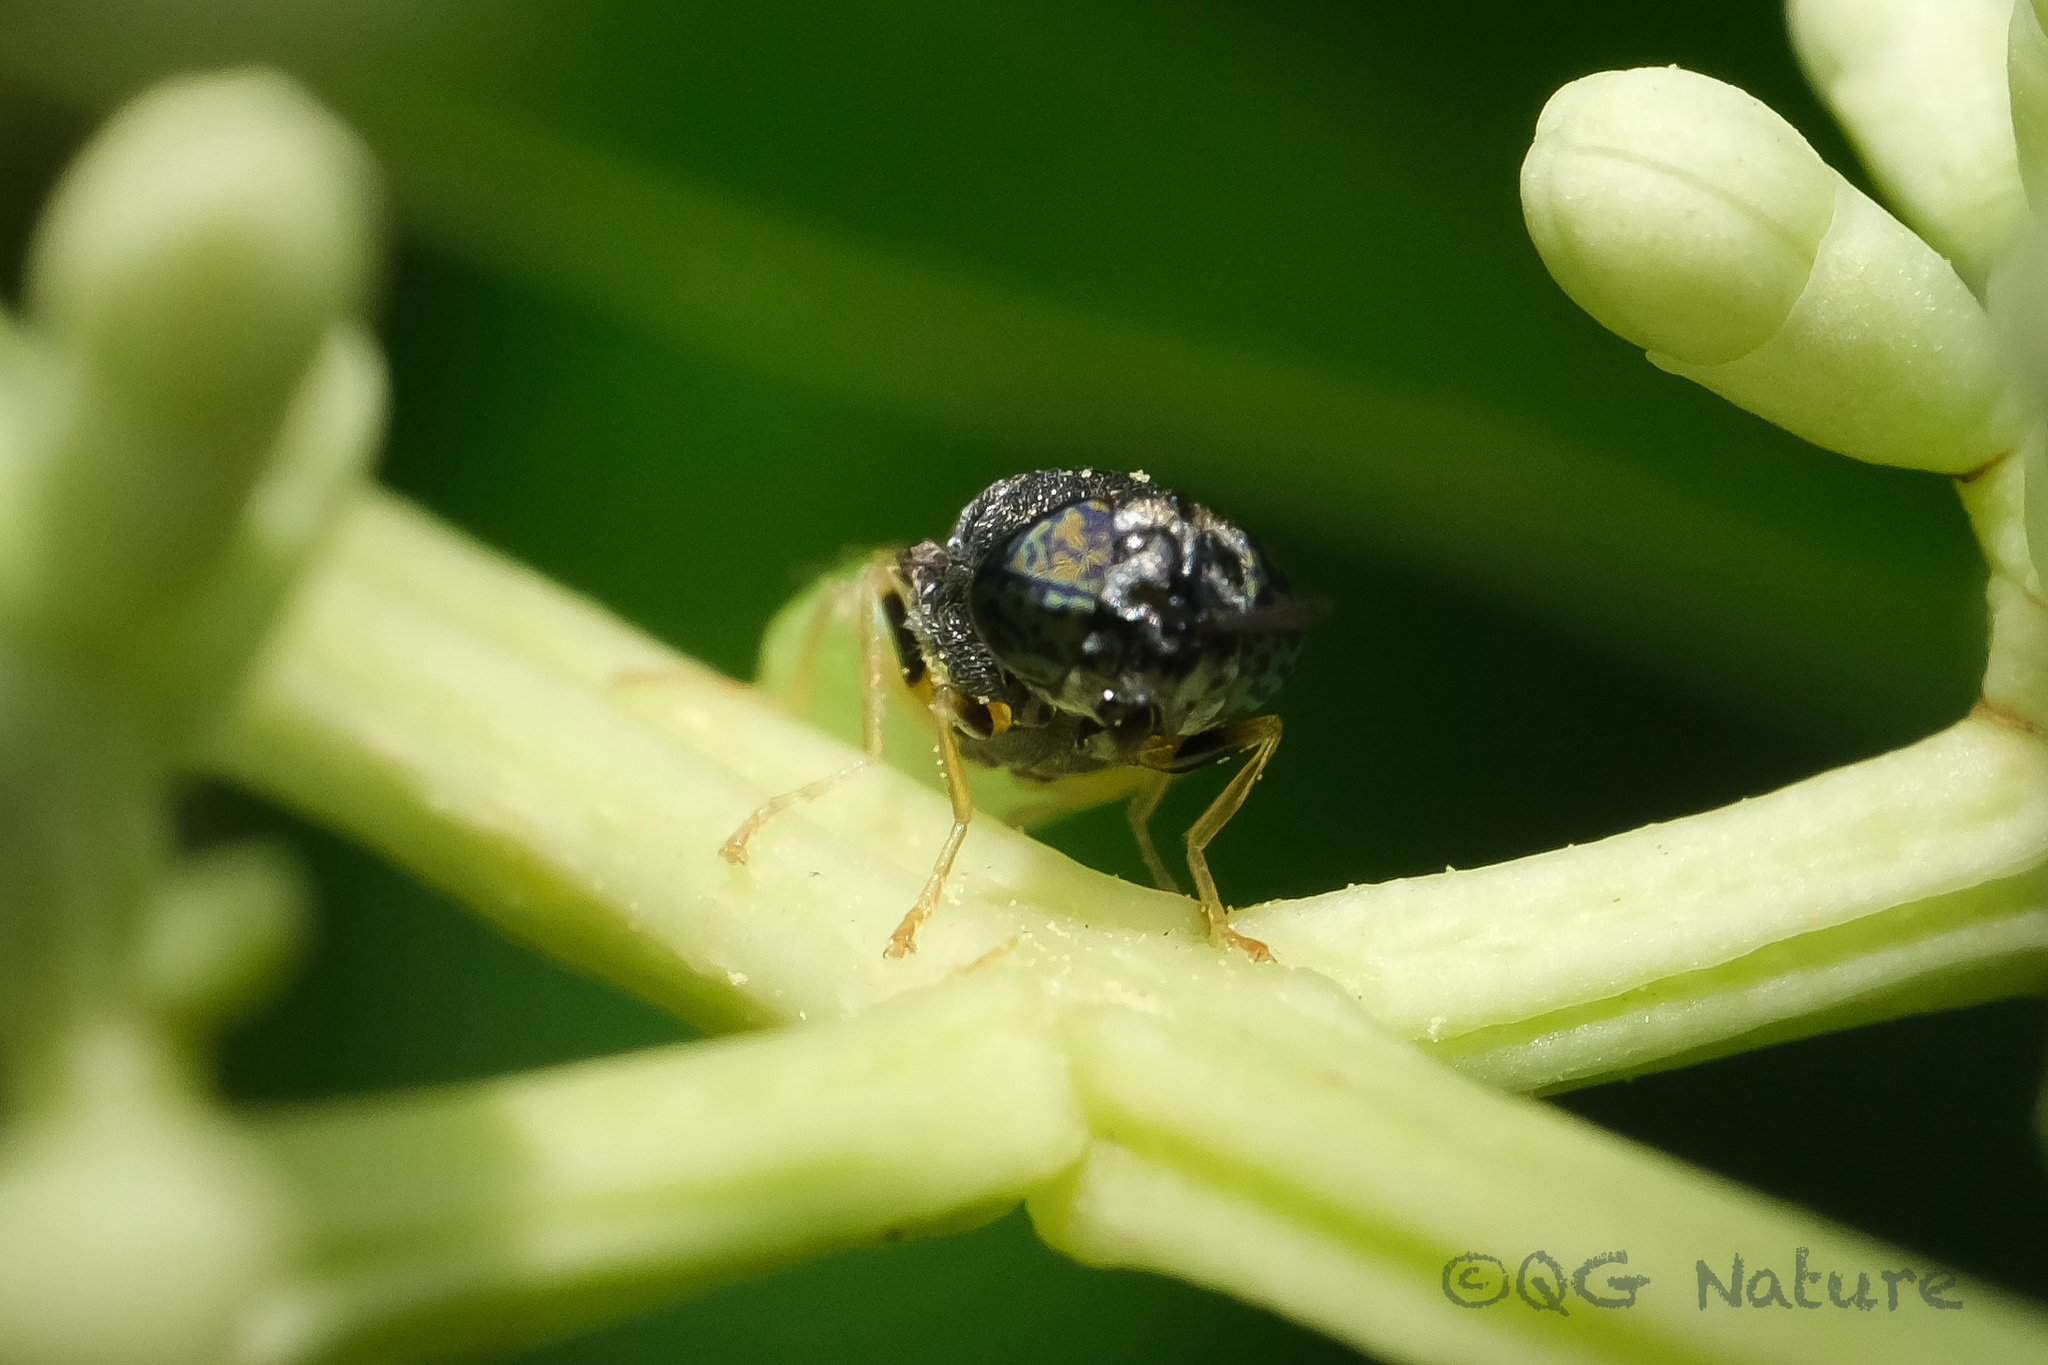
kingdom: Animalia
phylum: Arthropoda
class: Insecta
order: Diptera
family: Stratiomyidae
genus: Oplodontha
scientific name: Oplodontha rubrithorax
